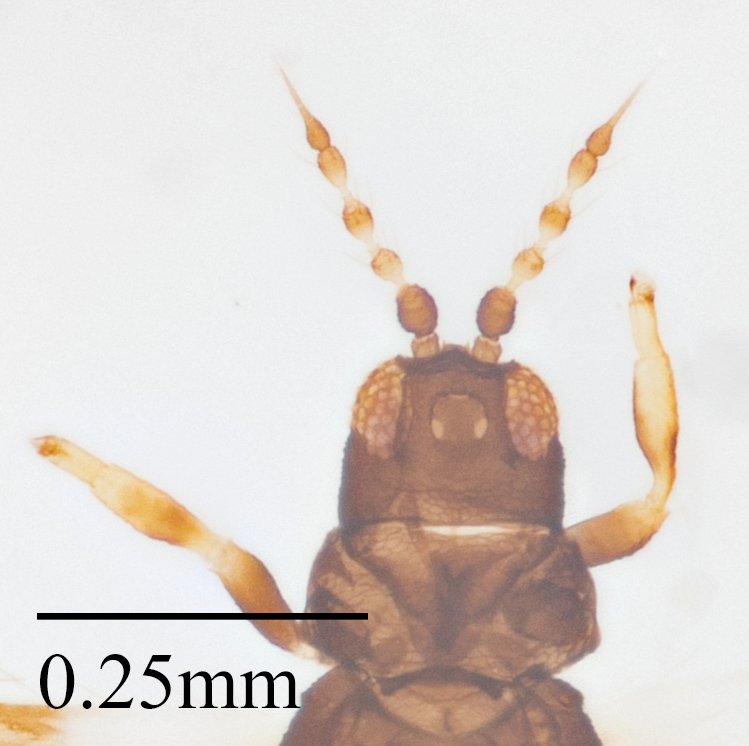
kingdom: Animalia
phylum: Arthropoda
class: Insecta
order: Thysanoptera
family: Thripidae
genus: Caliothrips
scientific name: Caliothrips punctipennis
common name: Thrip
